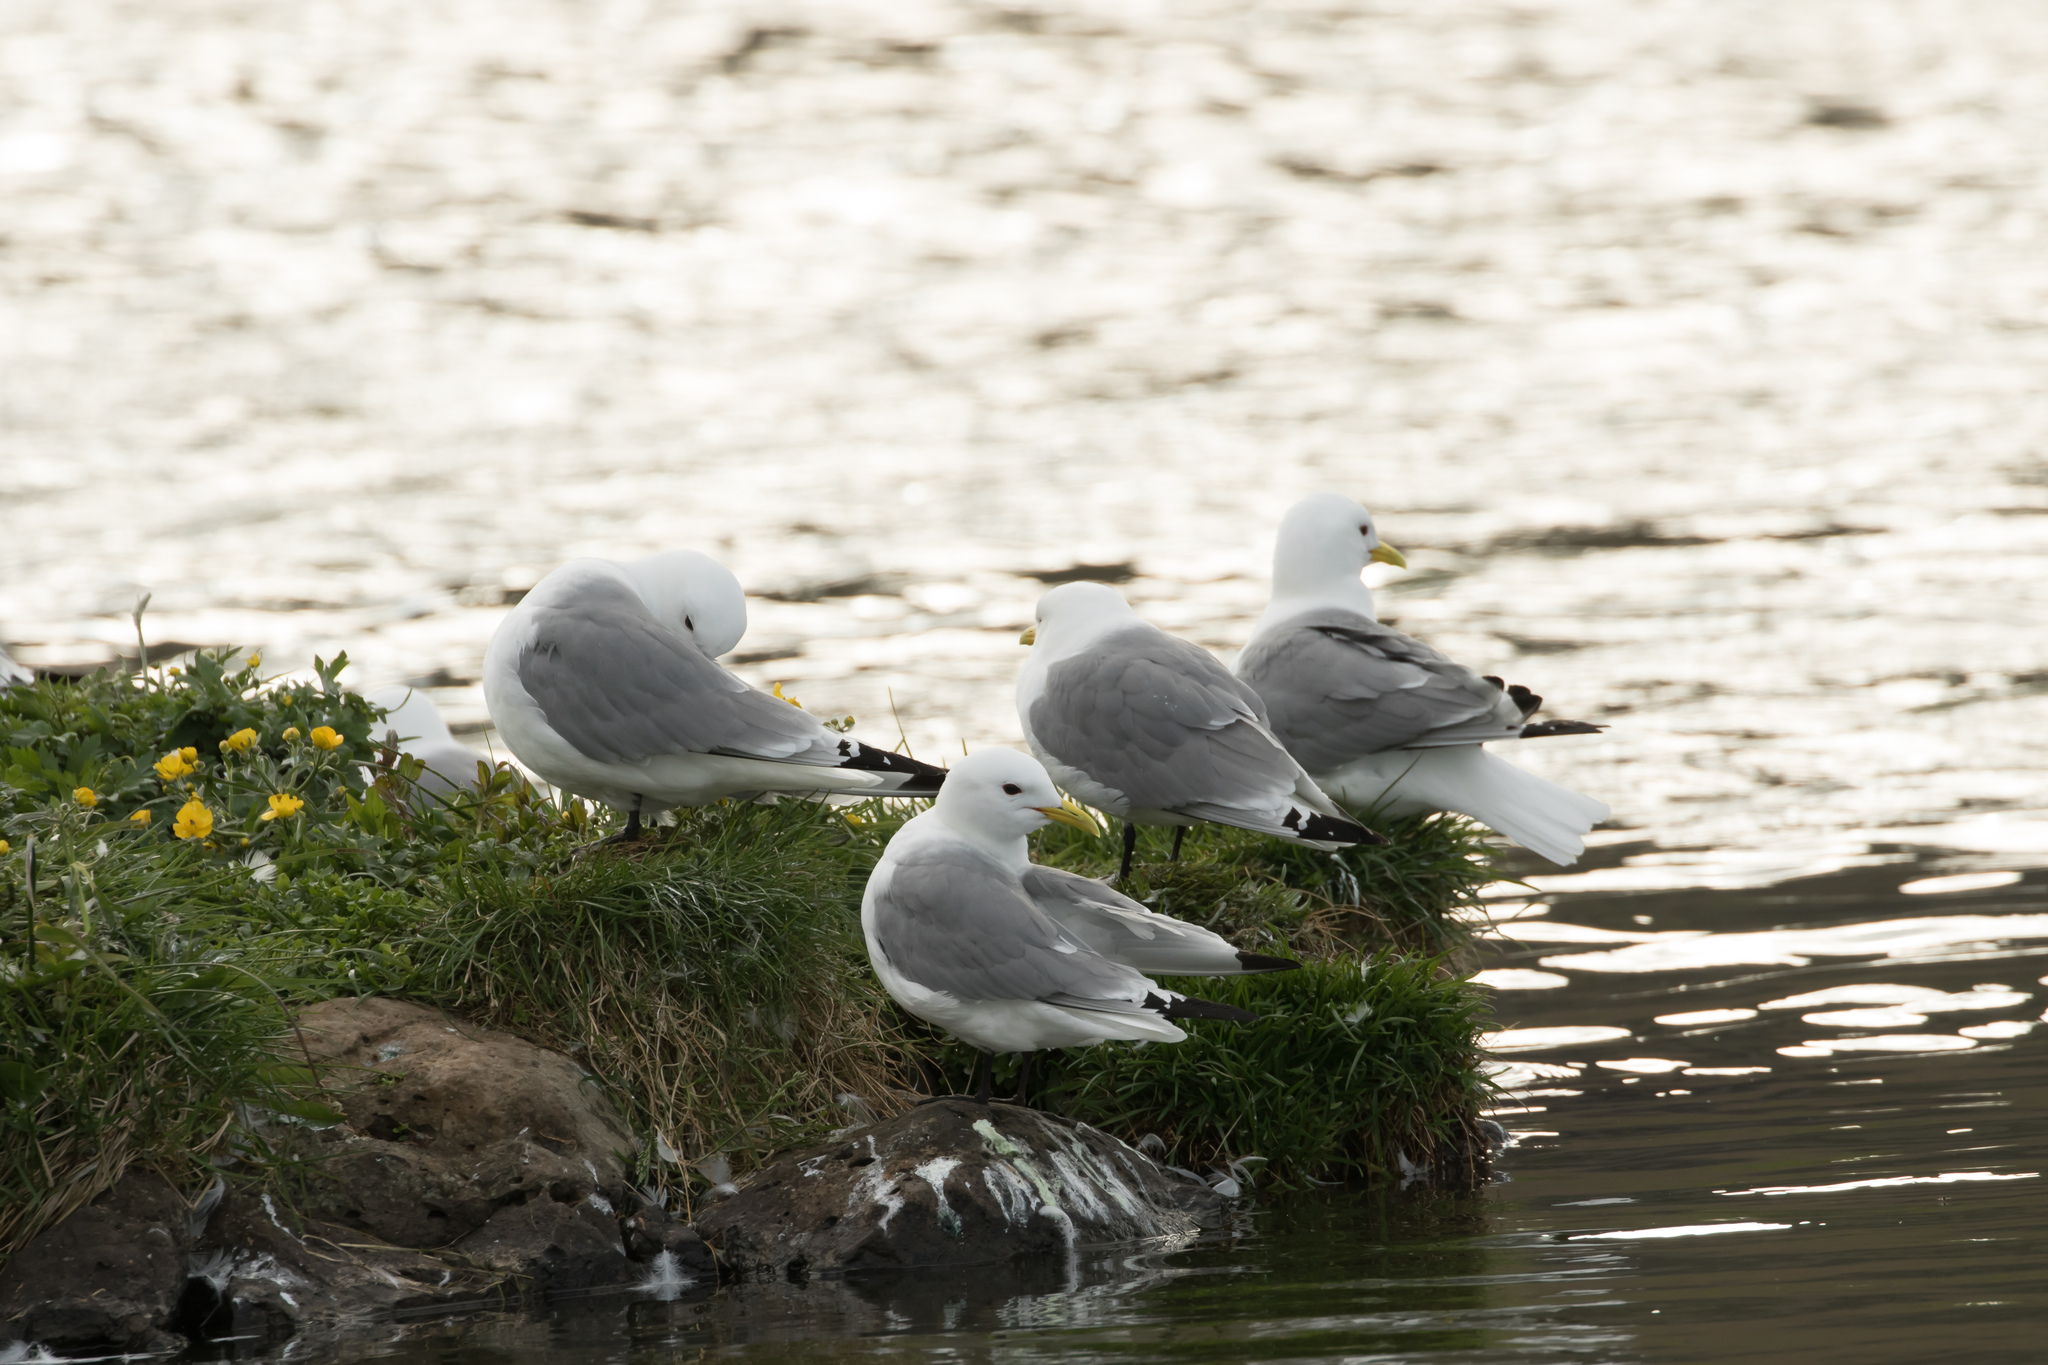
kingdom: Animalia
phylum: Chordata
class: Aves
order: Charadriiformes
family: Laridae
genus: Rissa
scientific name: Rissa tridactyla
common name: Black-legged kittiwake
